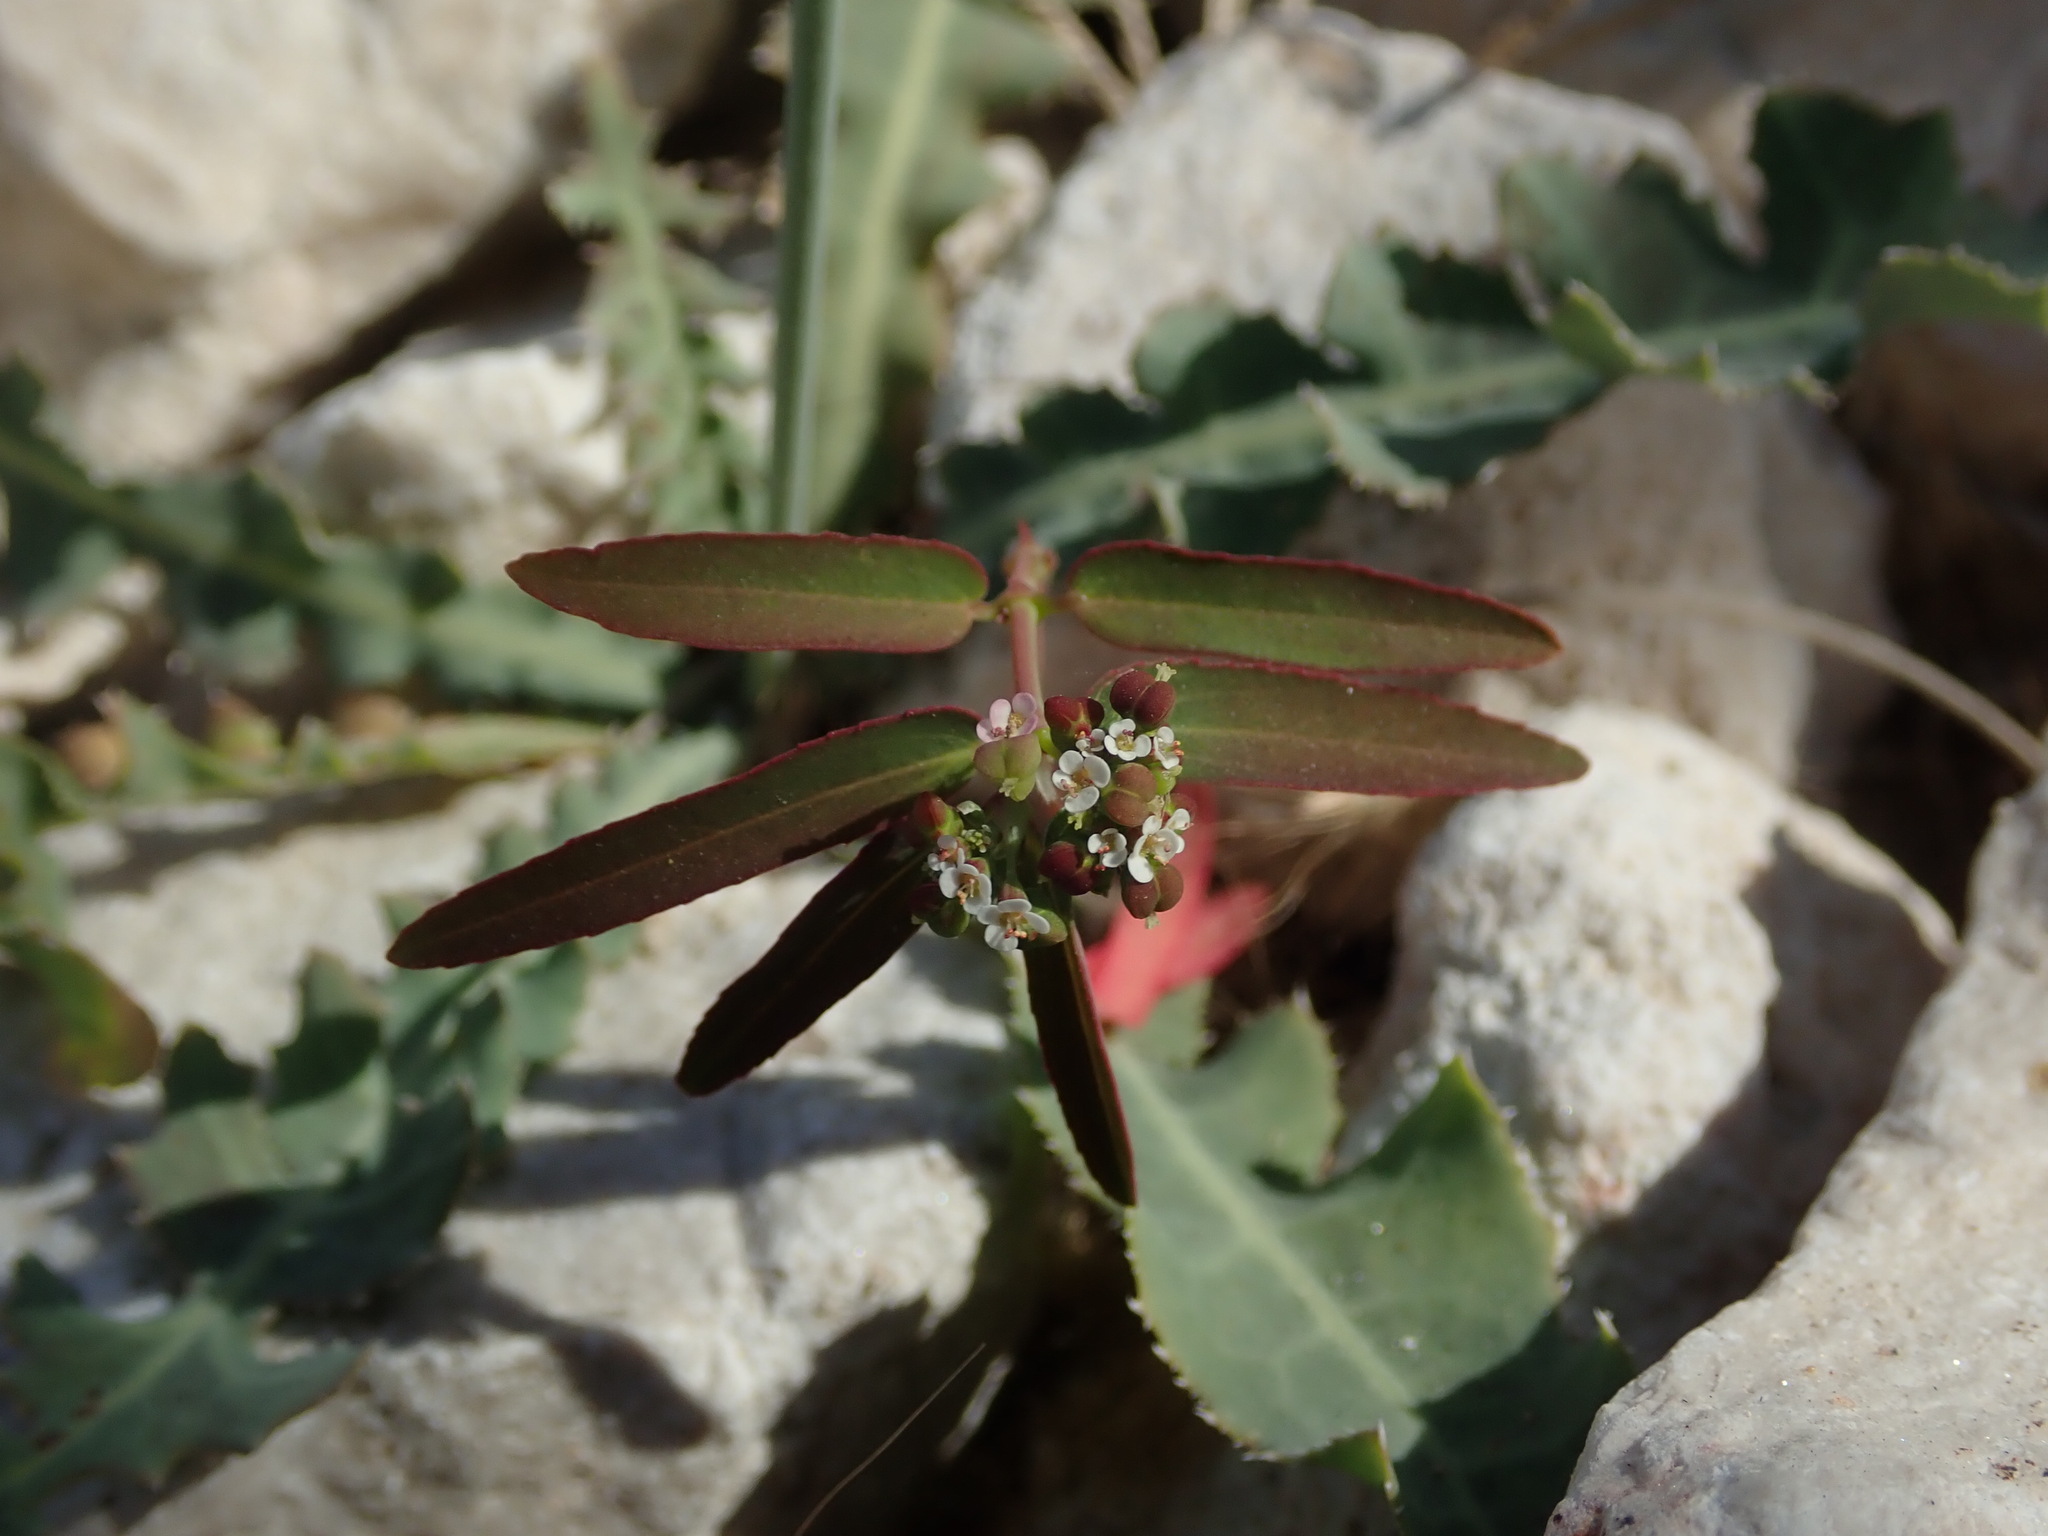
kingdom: Plantae
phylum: Tracheophyta
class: Magnoliopsida
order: Malpighiales
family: Euphorbiaceae
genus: Euphorbia
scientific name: Euphorbia hypericifolia
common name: Graceful sandmat
